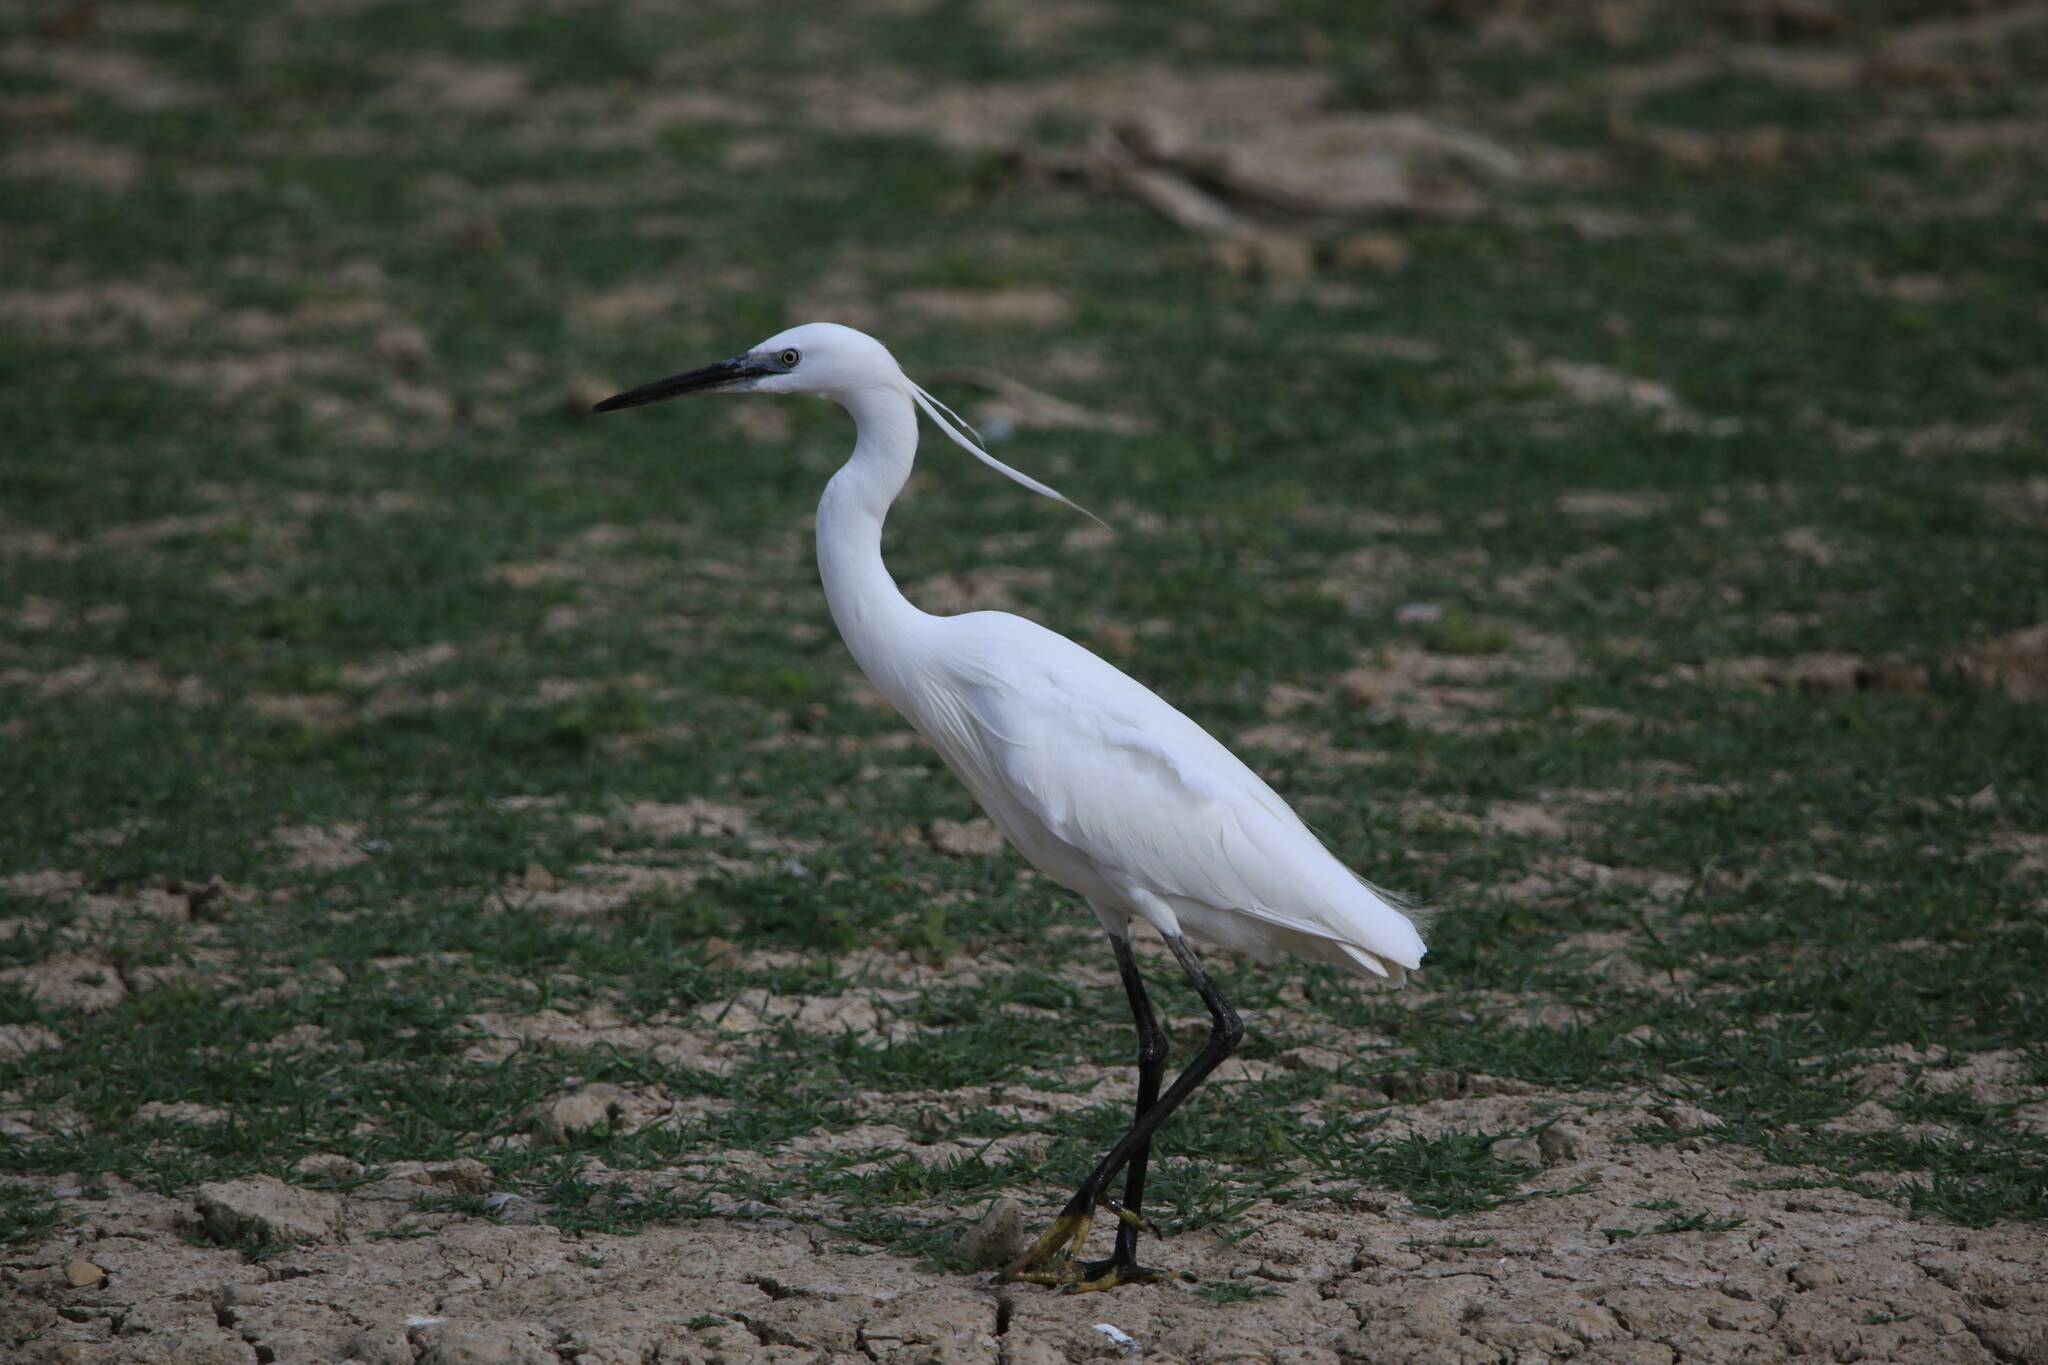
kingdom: Animalia
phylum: Chordata
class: Aves
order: Pelecaniformes
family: Ardeidae
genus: Egretta
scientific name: Egretta garzetta
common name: Little egret
